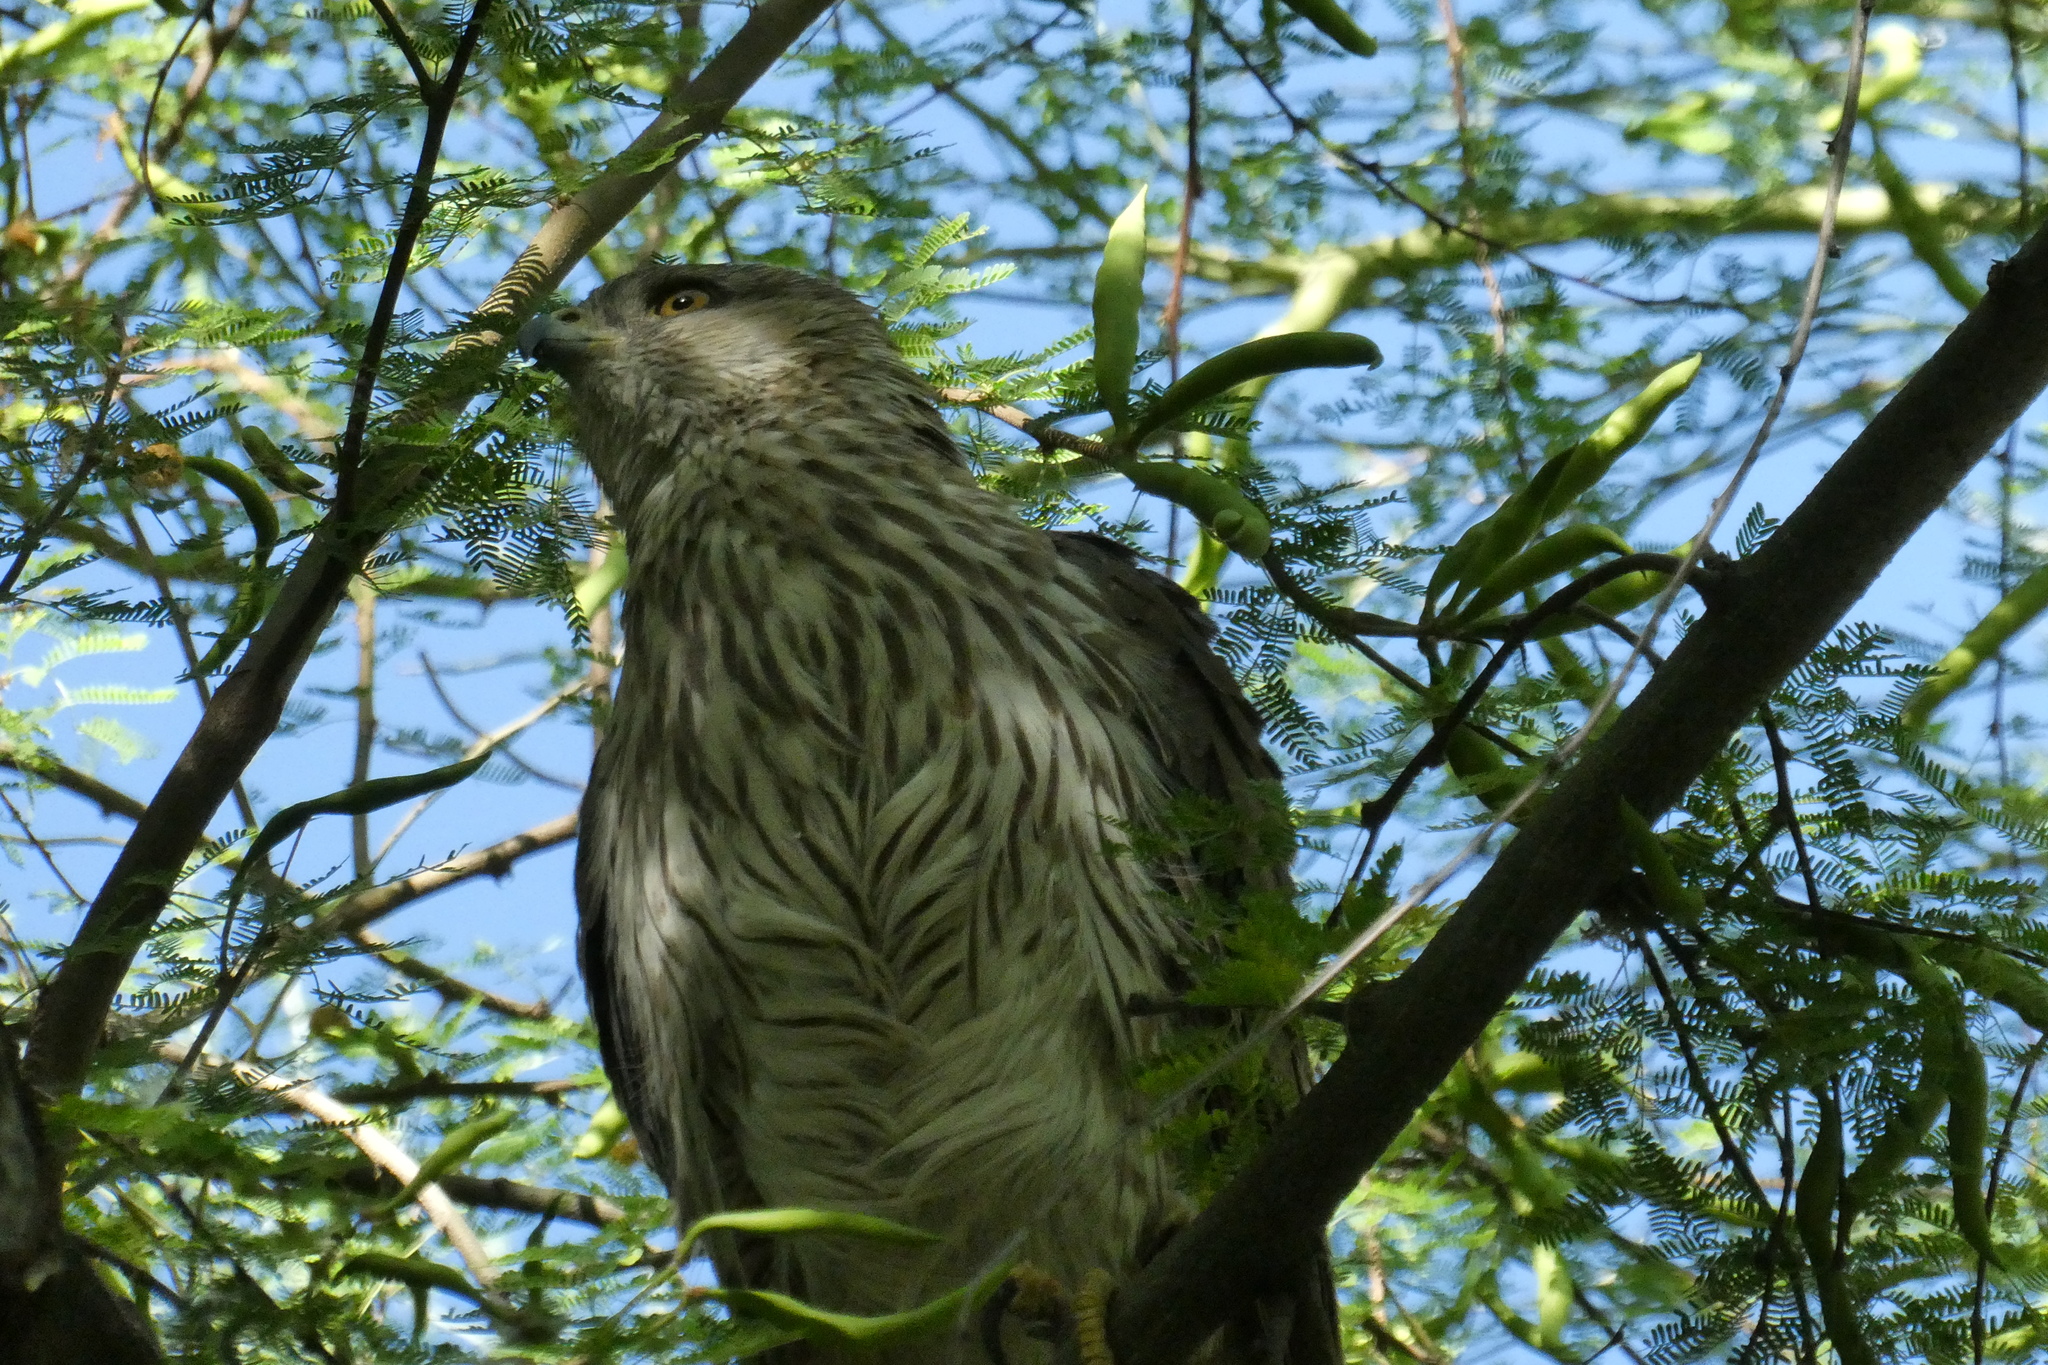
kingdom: Animalia
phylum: Chordata
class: Aves
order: Accipitriformes
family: Accipitridae
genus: Accipiter
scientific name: Accipiter cooperii
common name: Cooper's hawk
